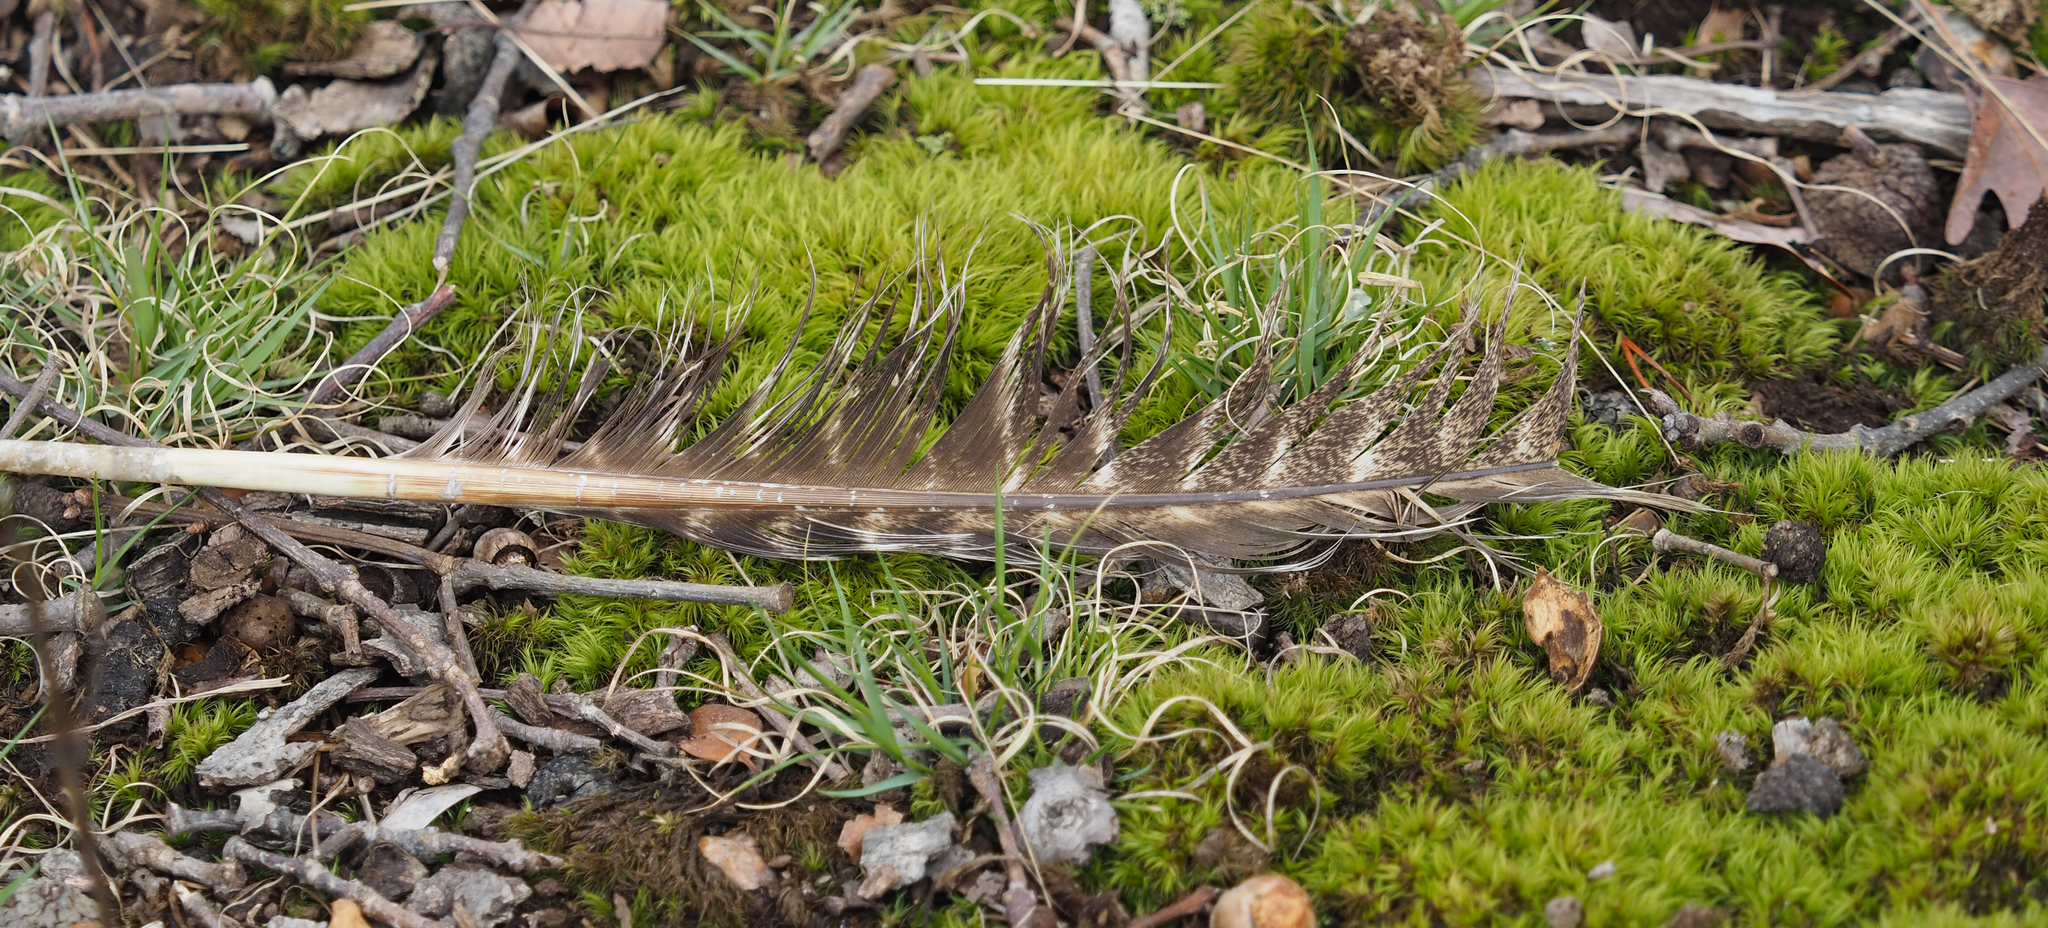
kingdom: Animalia
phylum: Chordata
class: Aves
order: Galliformes
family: Phasianidae
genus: Meleagris
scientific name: Meleagris gallopavo
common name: Wild turkey
